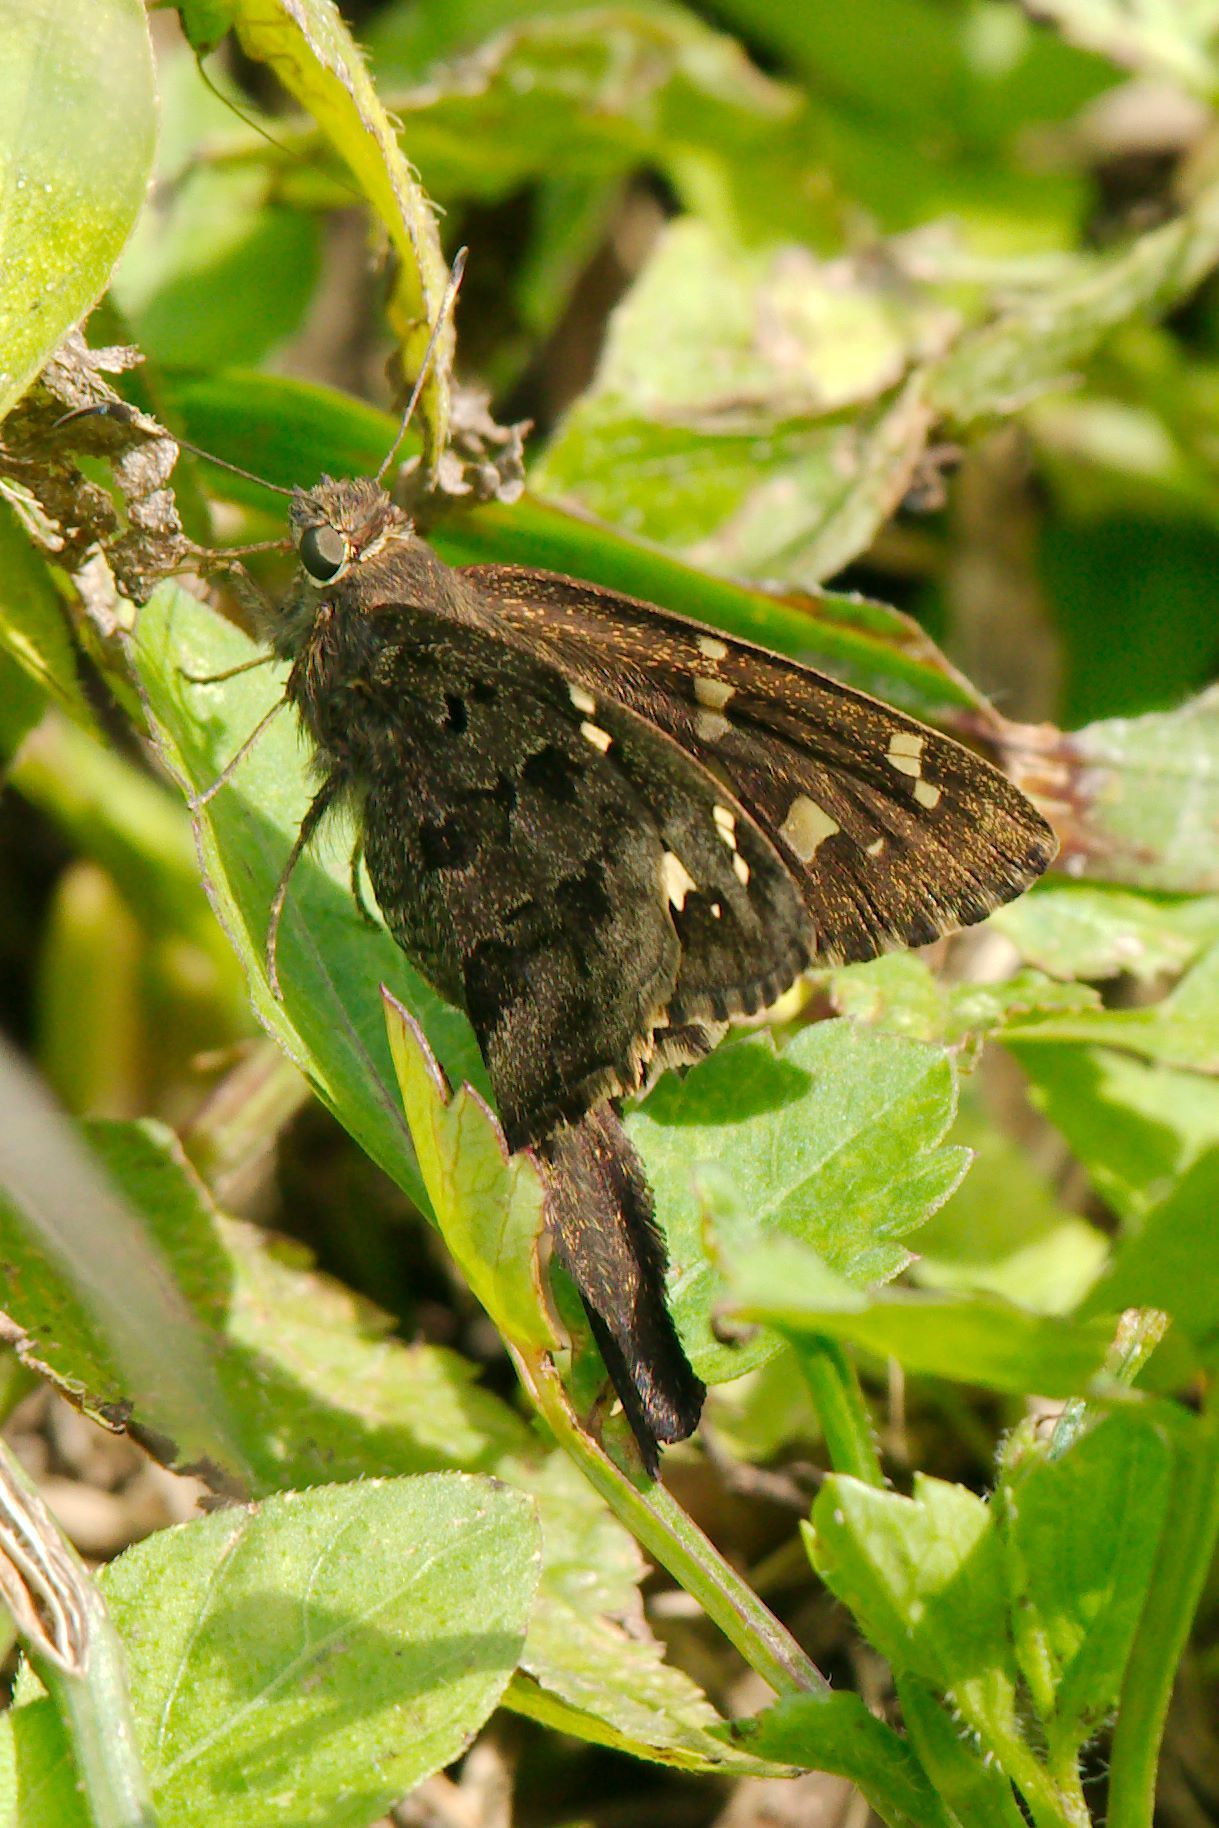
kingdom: Animalia
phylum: Arthropoda
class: Insecta
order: Lepidoptera
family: Hesperiidae
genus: Thorybes
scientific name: Thorybes
